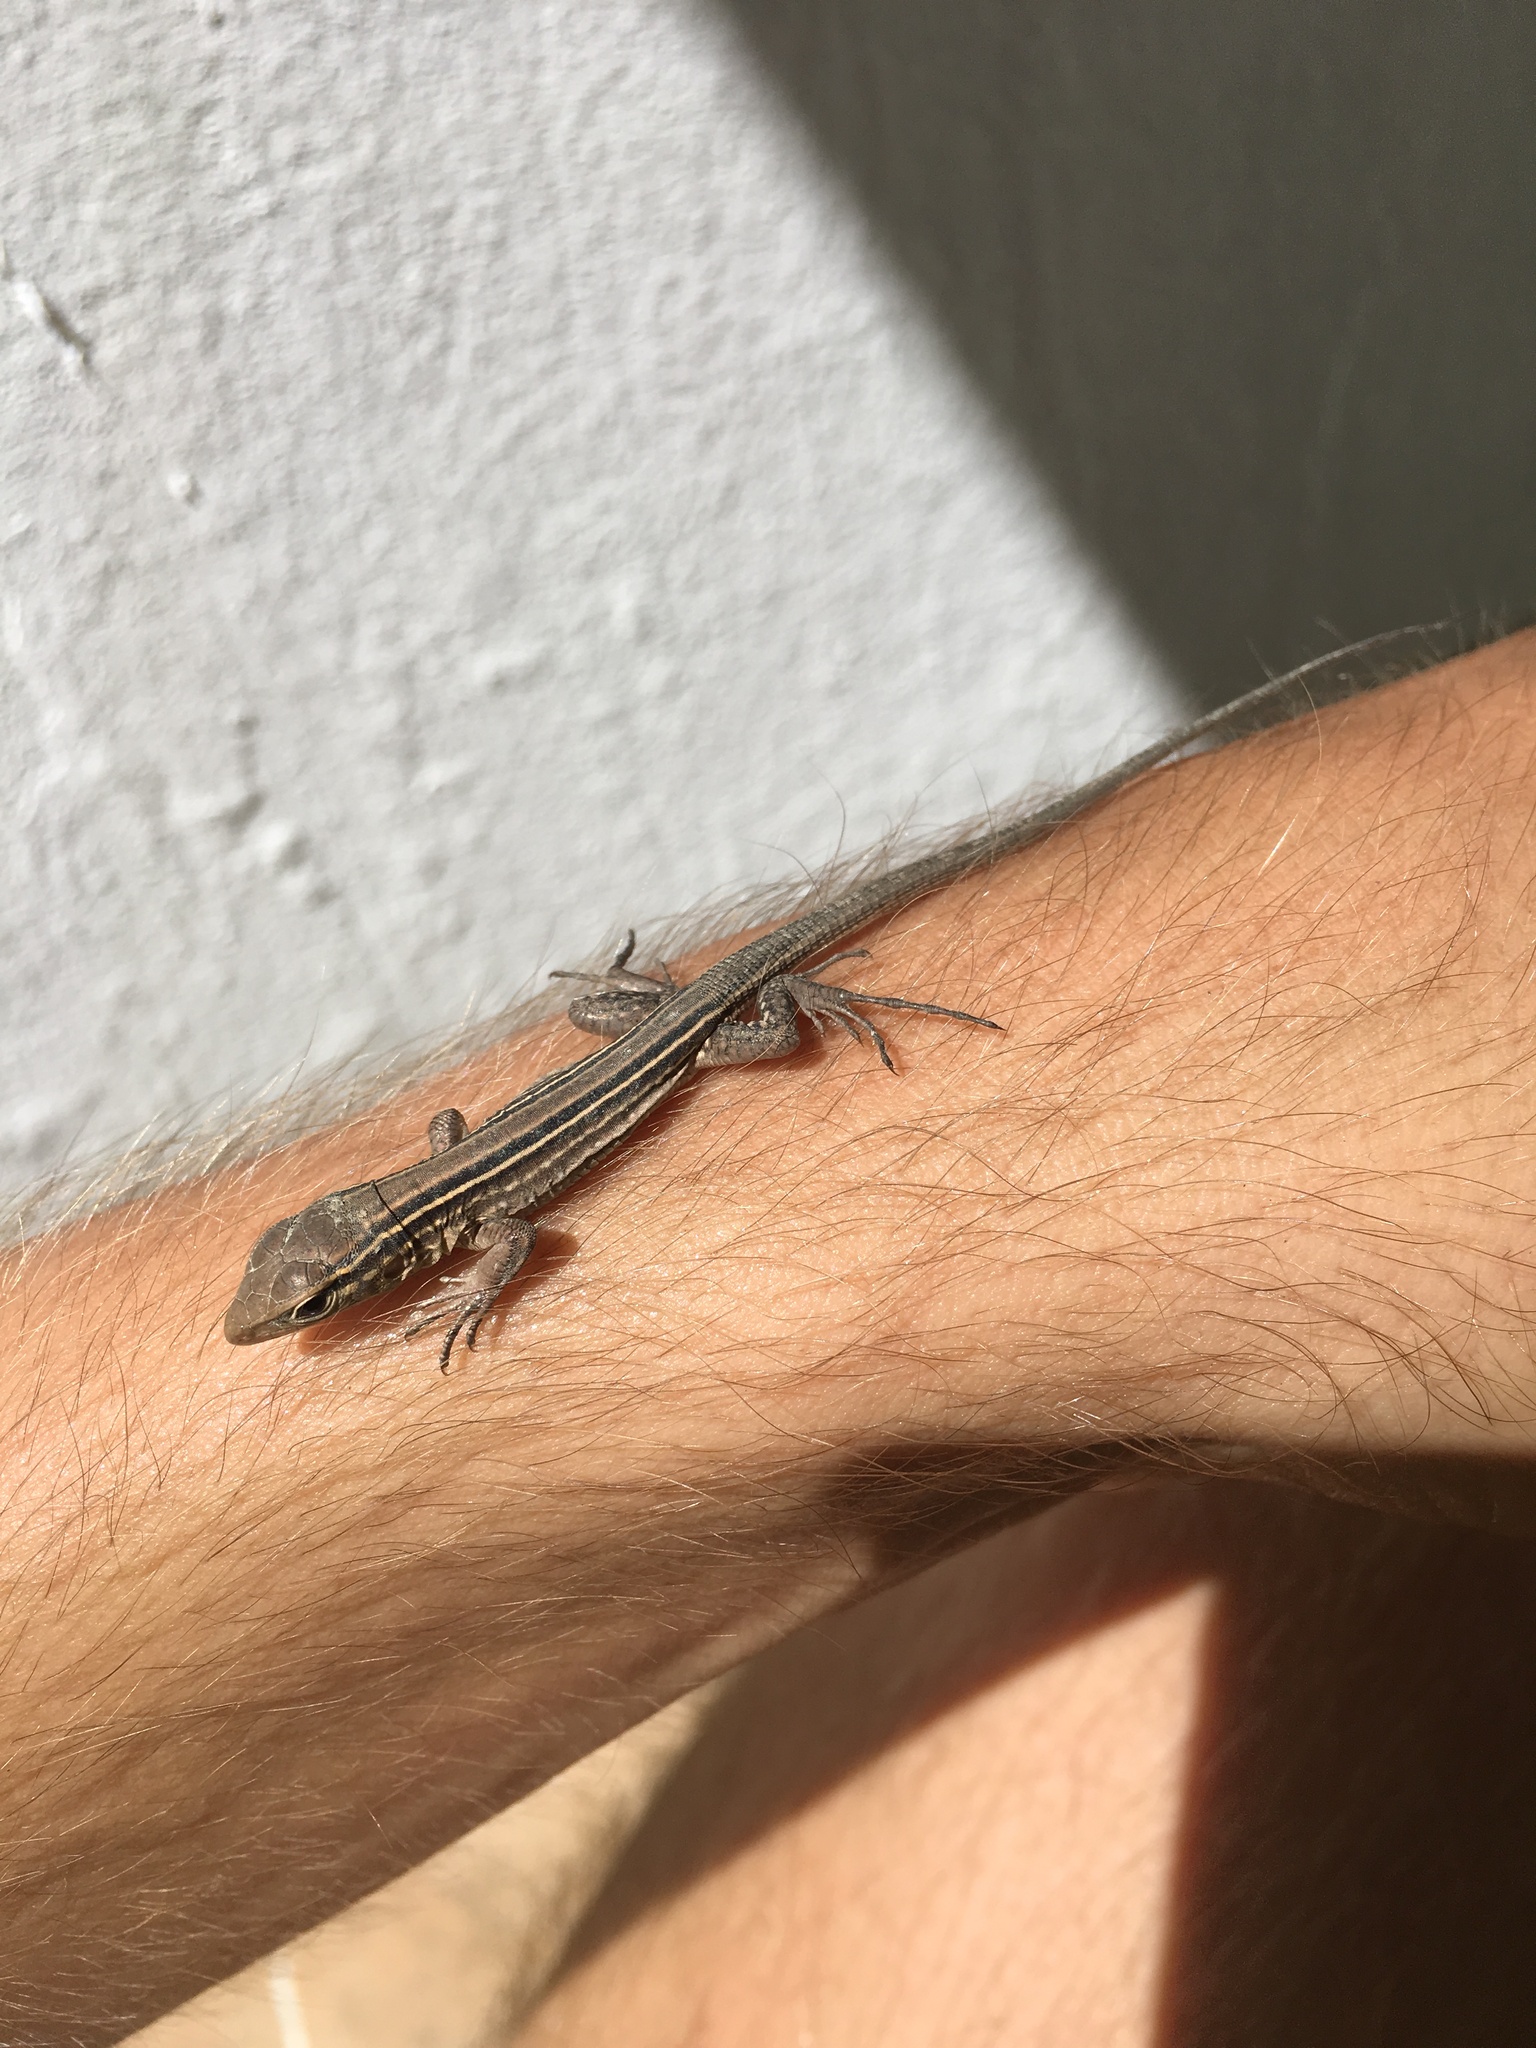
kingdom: Animalia
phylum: Chordata
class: Squamata
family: Teiidae
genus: Cnemidophorus
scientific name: Cnemidophorus gramivagus
